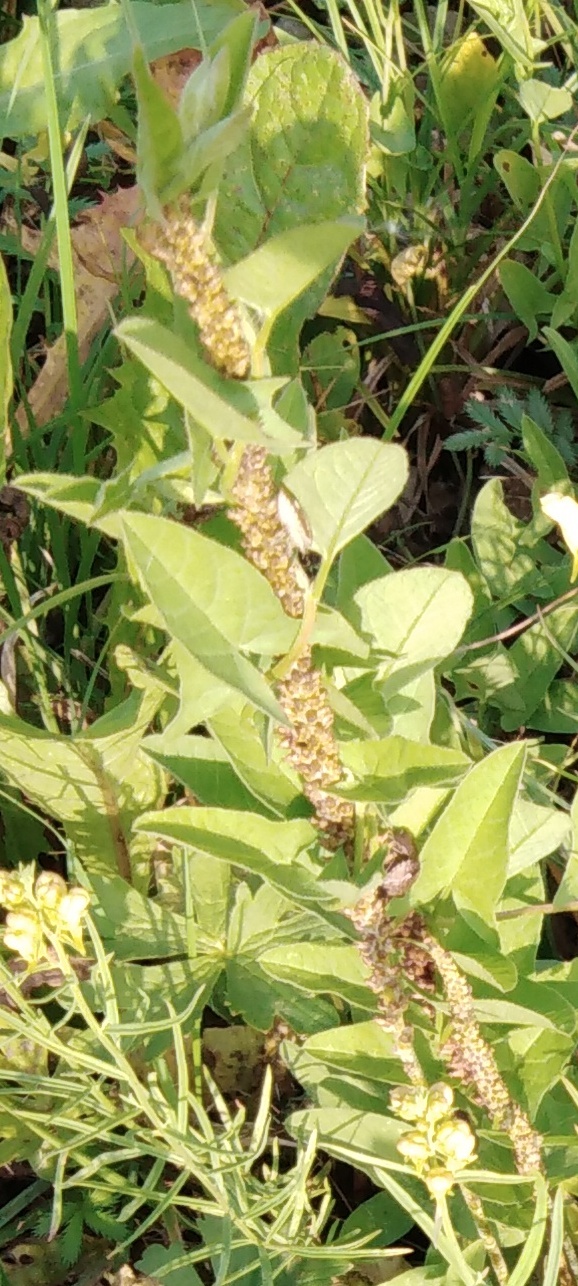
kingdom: Plantae
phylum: Tracheophyta
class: Magnoliopsida
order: Solanales
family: Convolvulaceae
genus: Convolvulus
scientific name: Convolvulus arvensis
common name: Field bindweed
